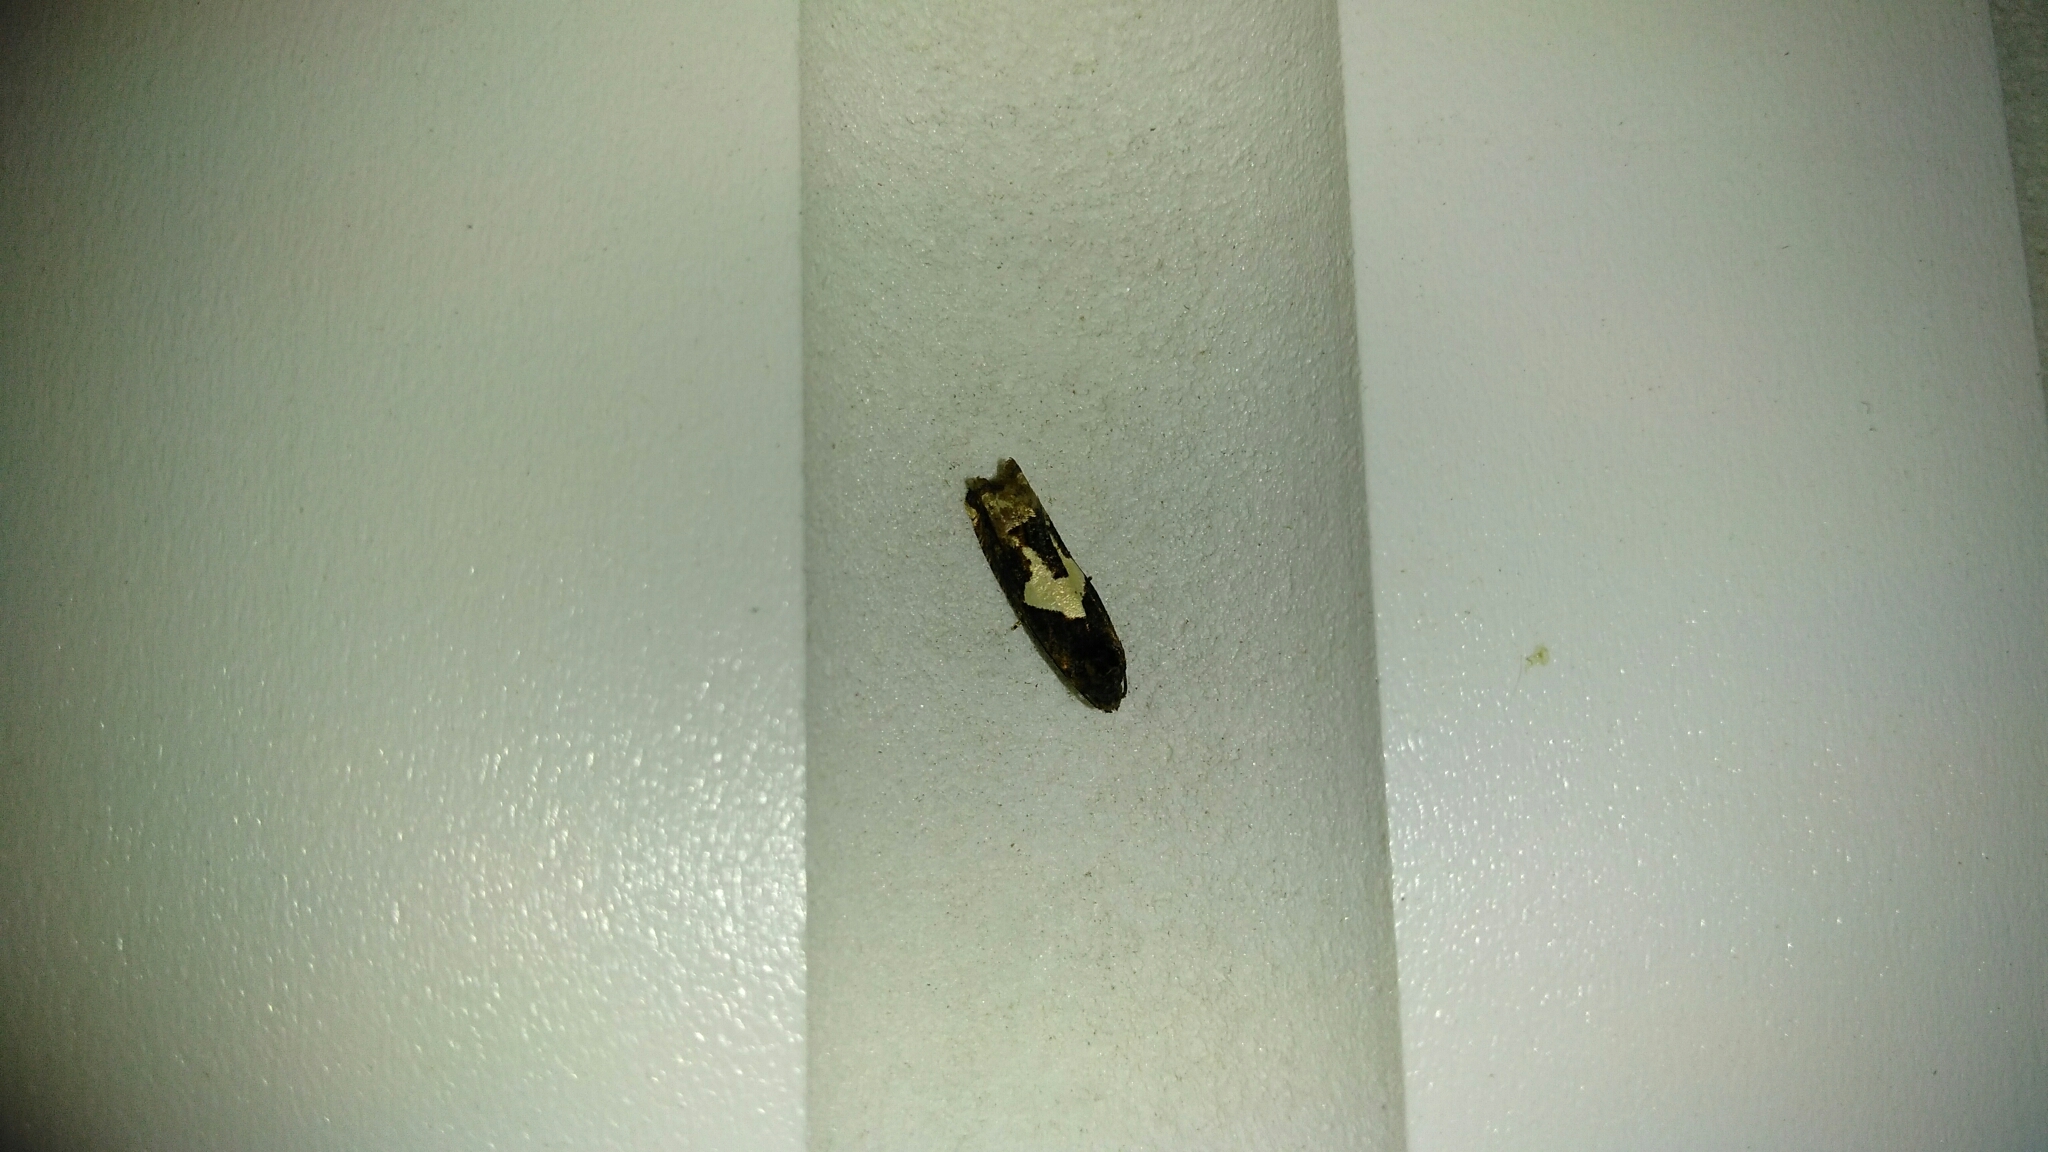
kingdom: Animalia
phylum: Arthropoda
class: Insecta
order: Lepidoptera
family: Tortricidae
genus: Epiblema
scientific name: Epiblema otiosana
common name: Bidens borer moth
